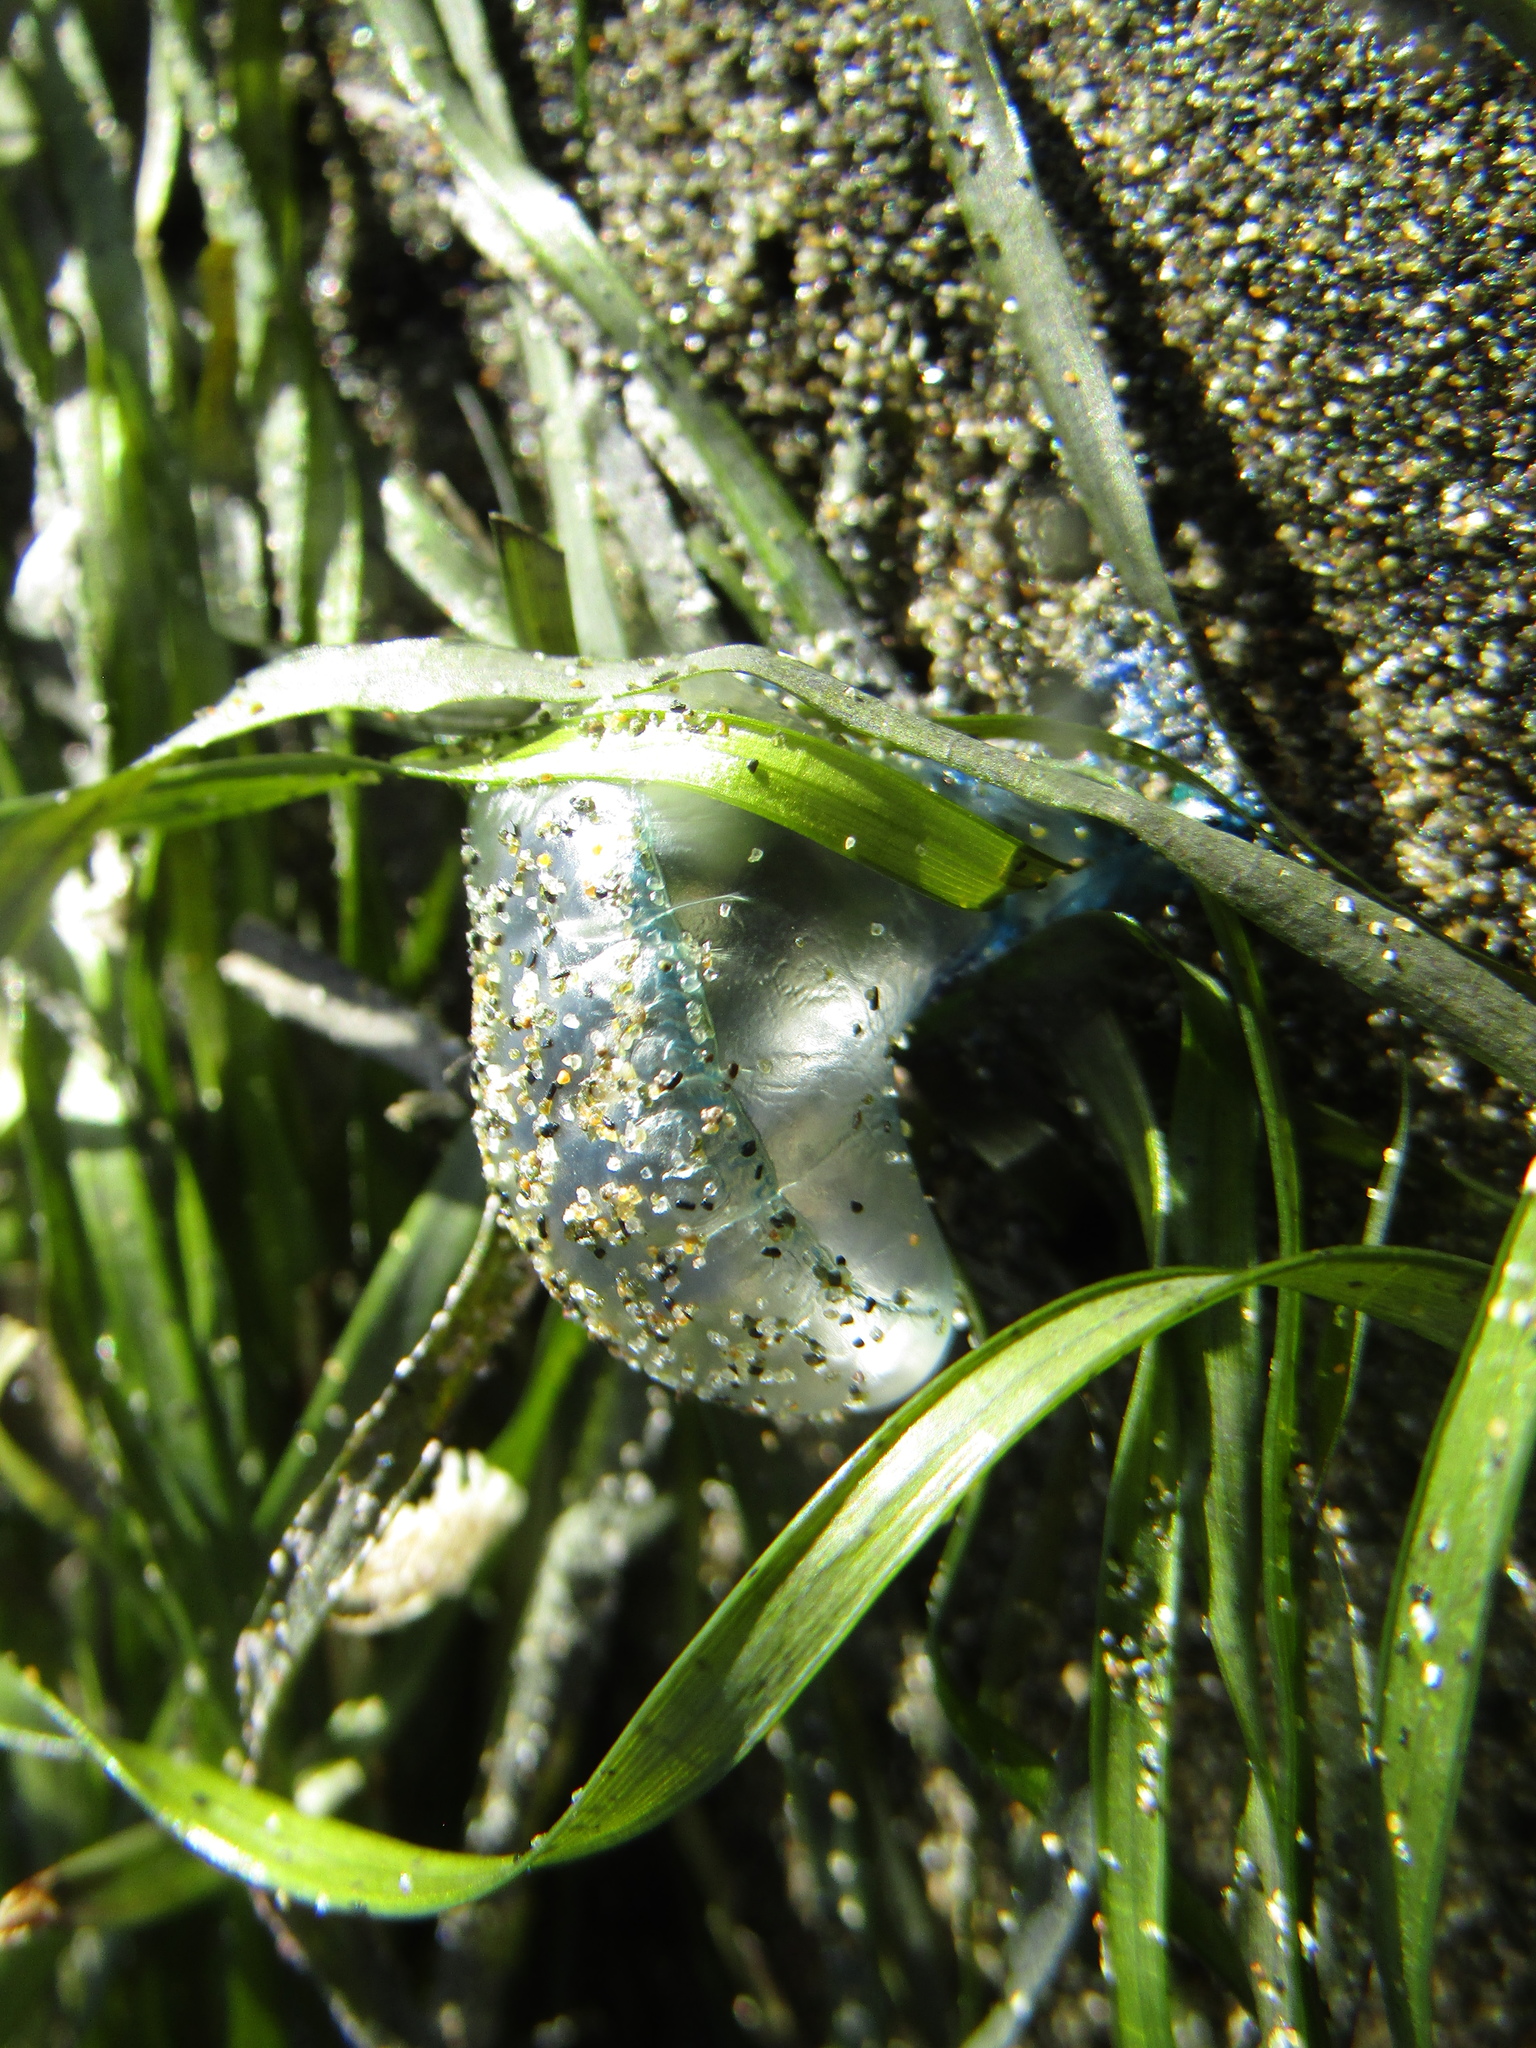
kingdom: Animalia
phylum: Cnidaria
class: Hydrozoa
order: Siphonophorae
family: Physaliidae
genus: Physalia
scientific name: Physalia physalis
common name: Portuguese man-of-war
